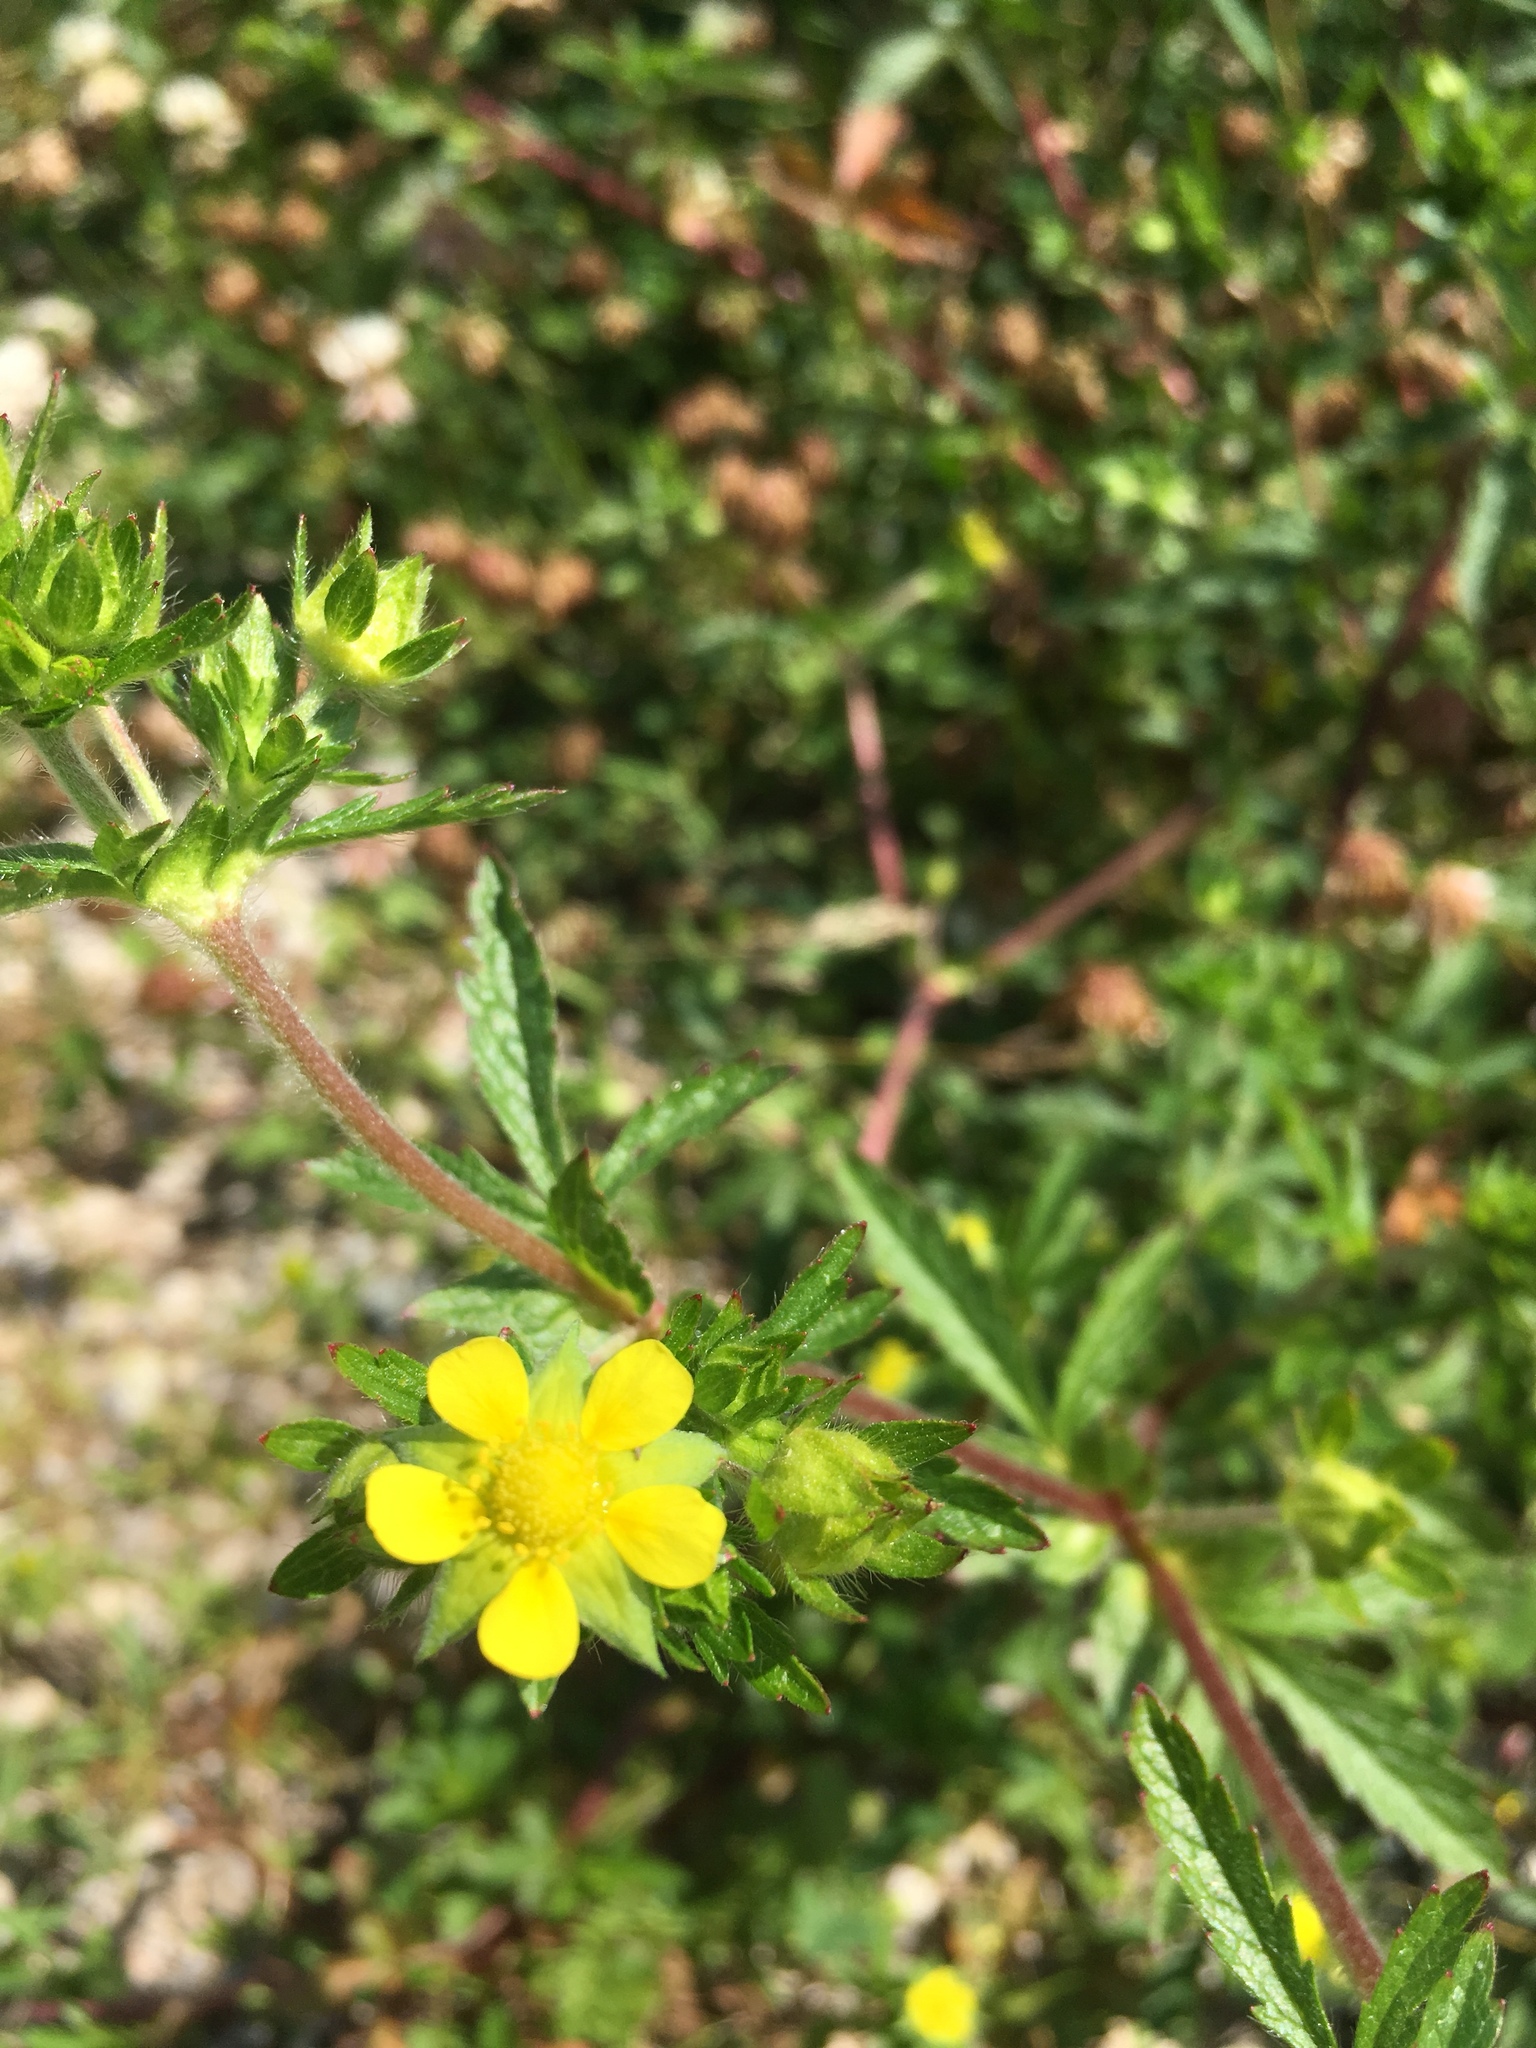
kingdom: Plantae
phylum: Tracheophyta
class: Magnoliopsida
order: Rosales
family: Rosaceae
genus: Potentilla
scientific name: Potentilla norvegica
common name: Ternate-leaved cinquefoil
